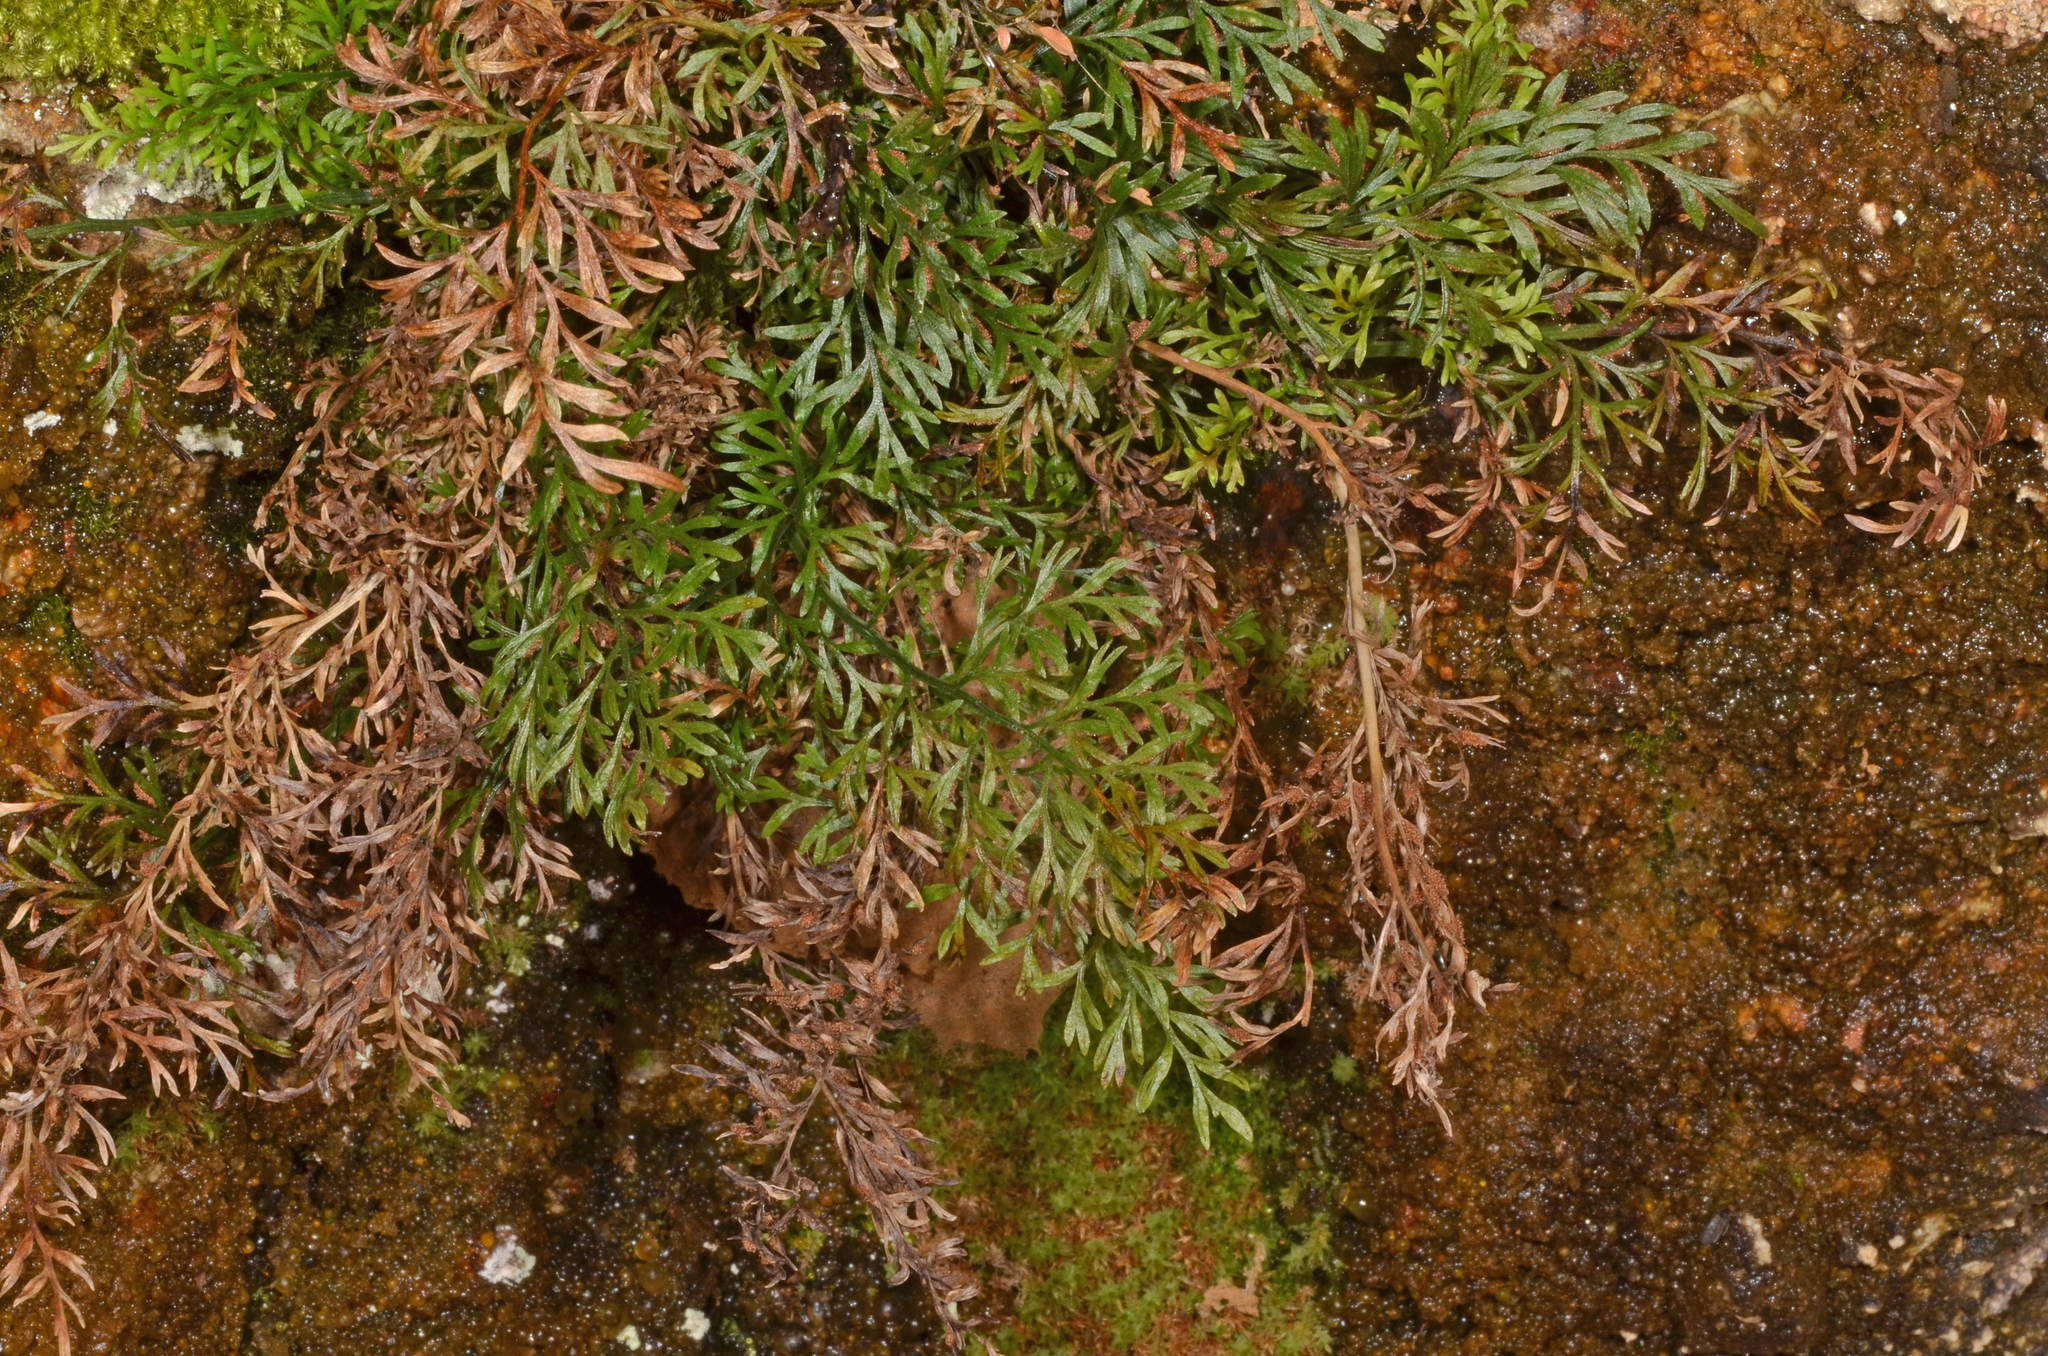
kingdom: Plantae
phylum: Tracheophyta
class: Polypodiopsida
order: Polypodiales
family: Aspleniaceae
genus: Asplenium
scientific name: Asplenium richardii
